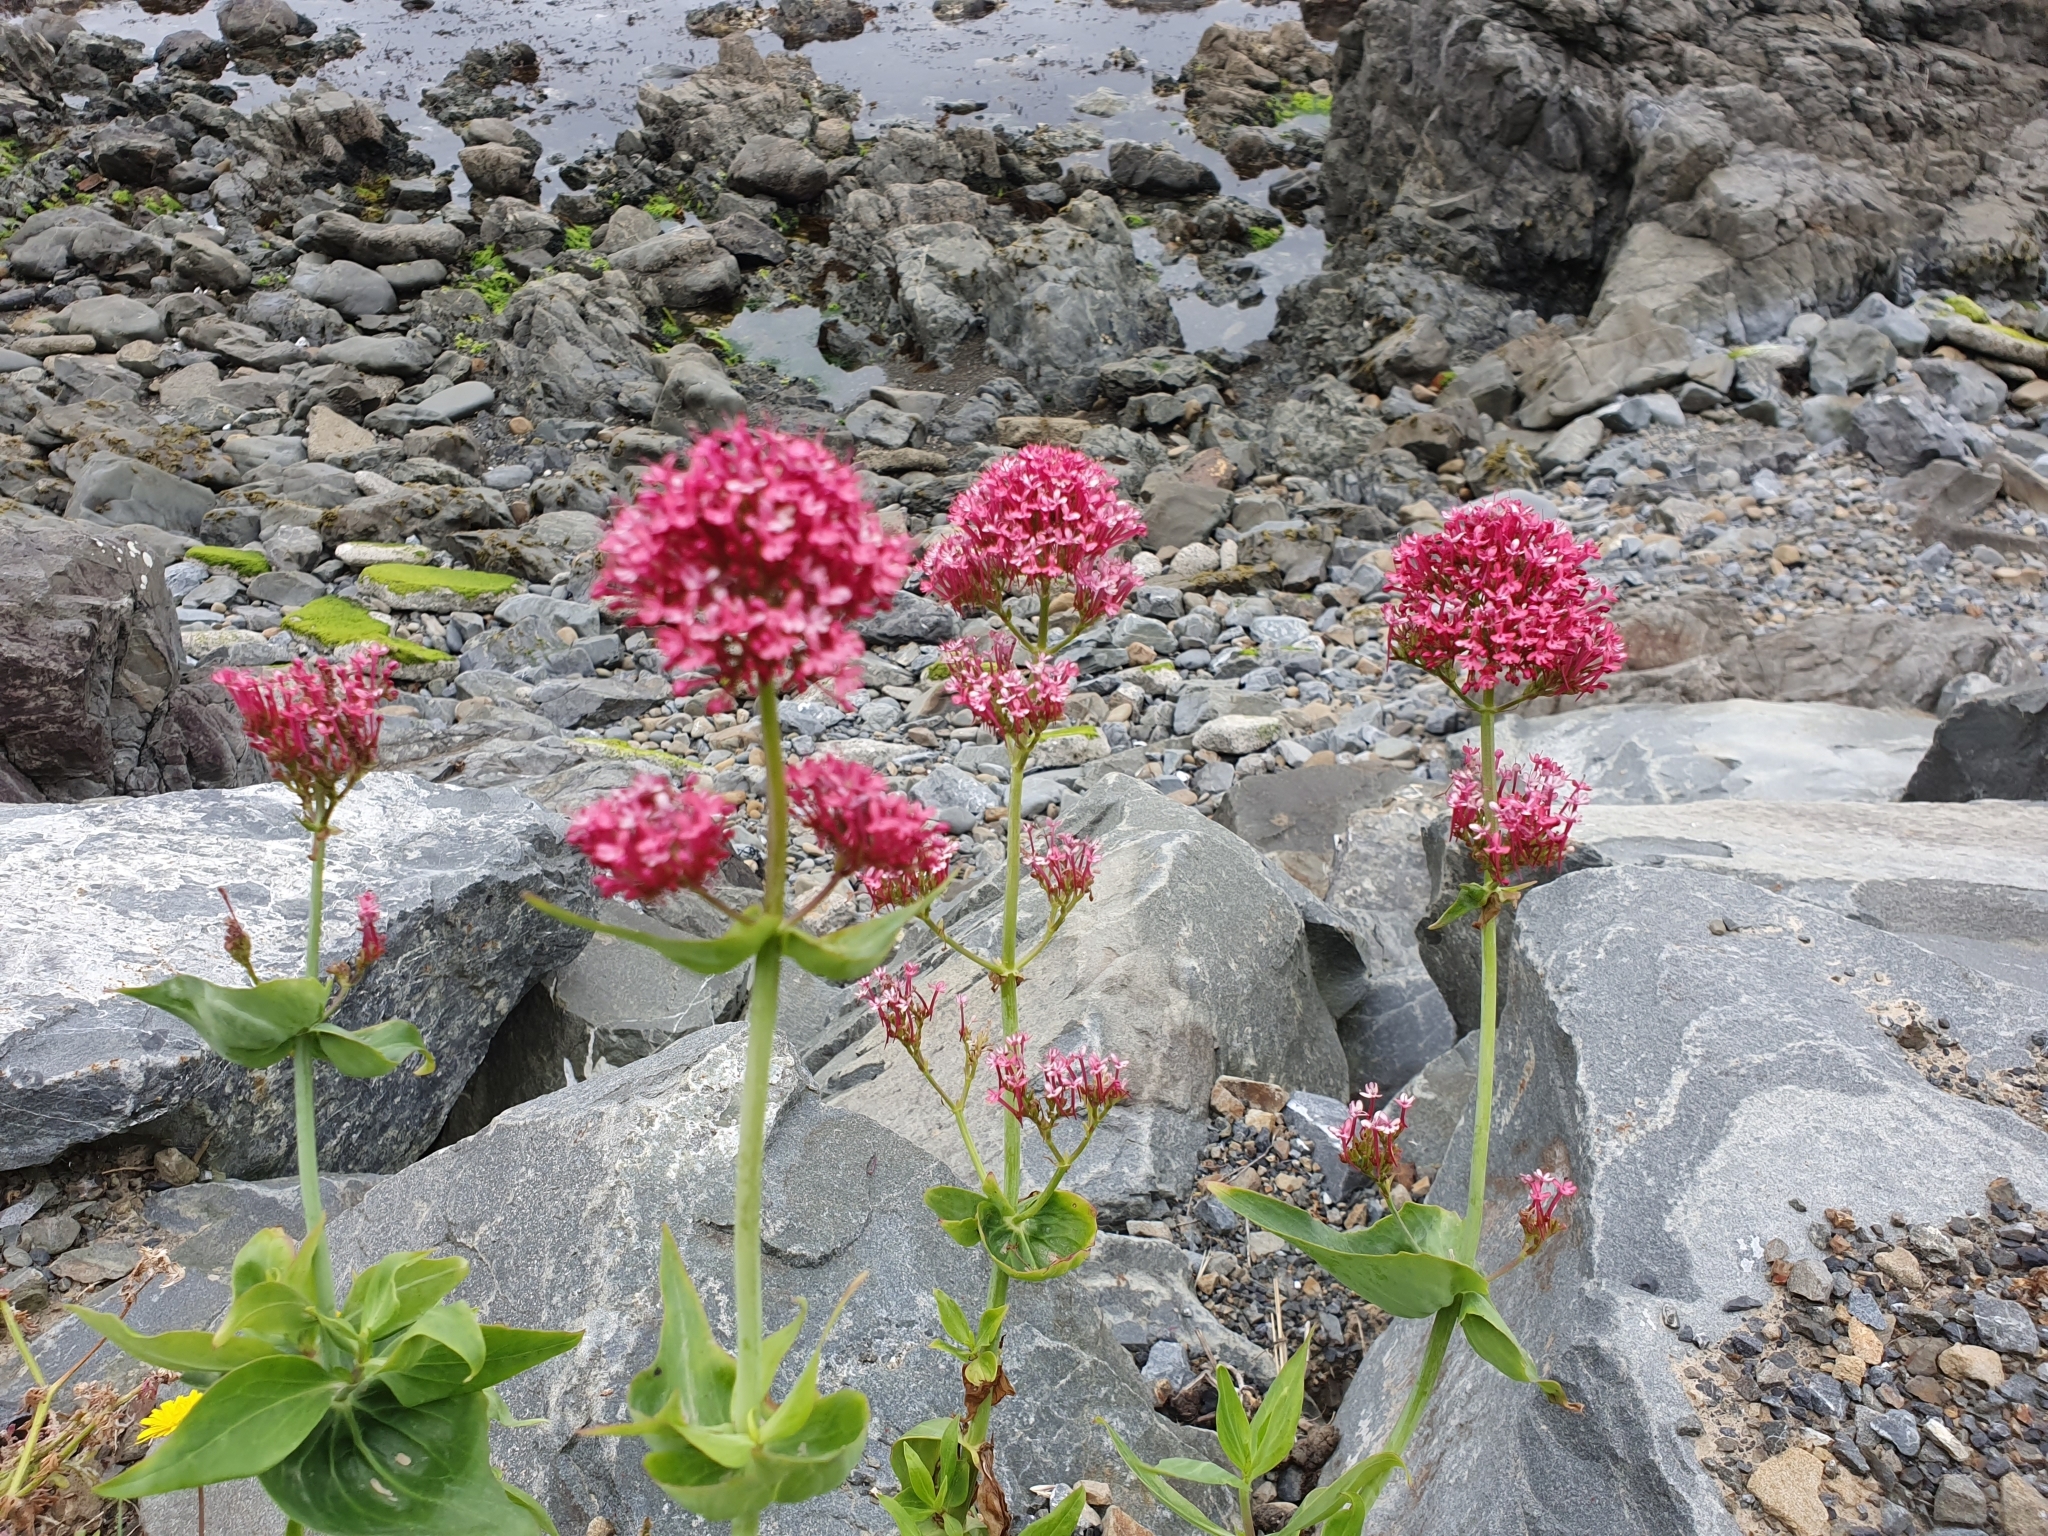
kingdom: Plantae
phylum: Tracheophyta
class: Magnoliopsida
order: Dipsacales
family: Caprifoliaceae
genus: Centranthus
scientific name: Centranthus ruber
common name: Red valerian
